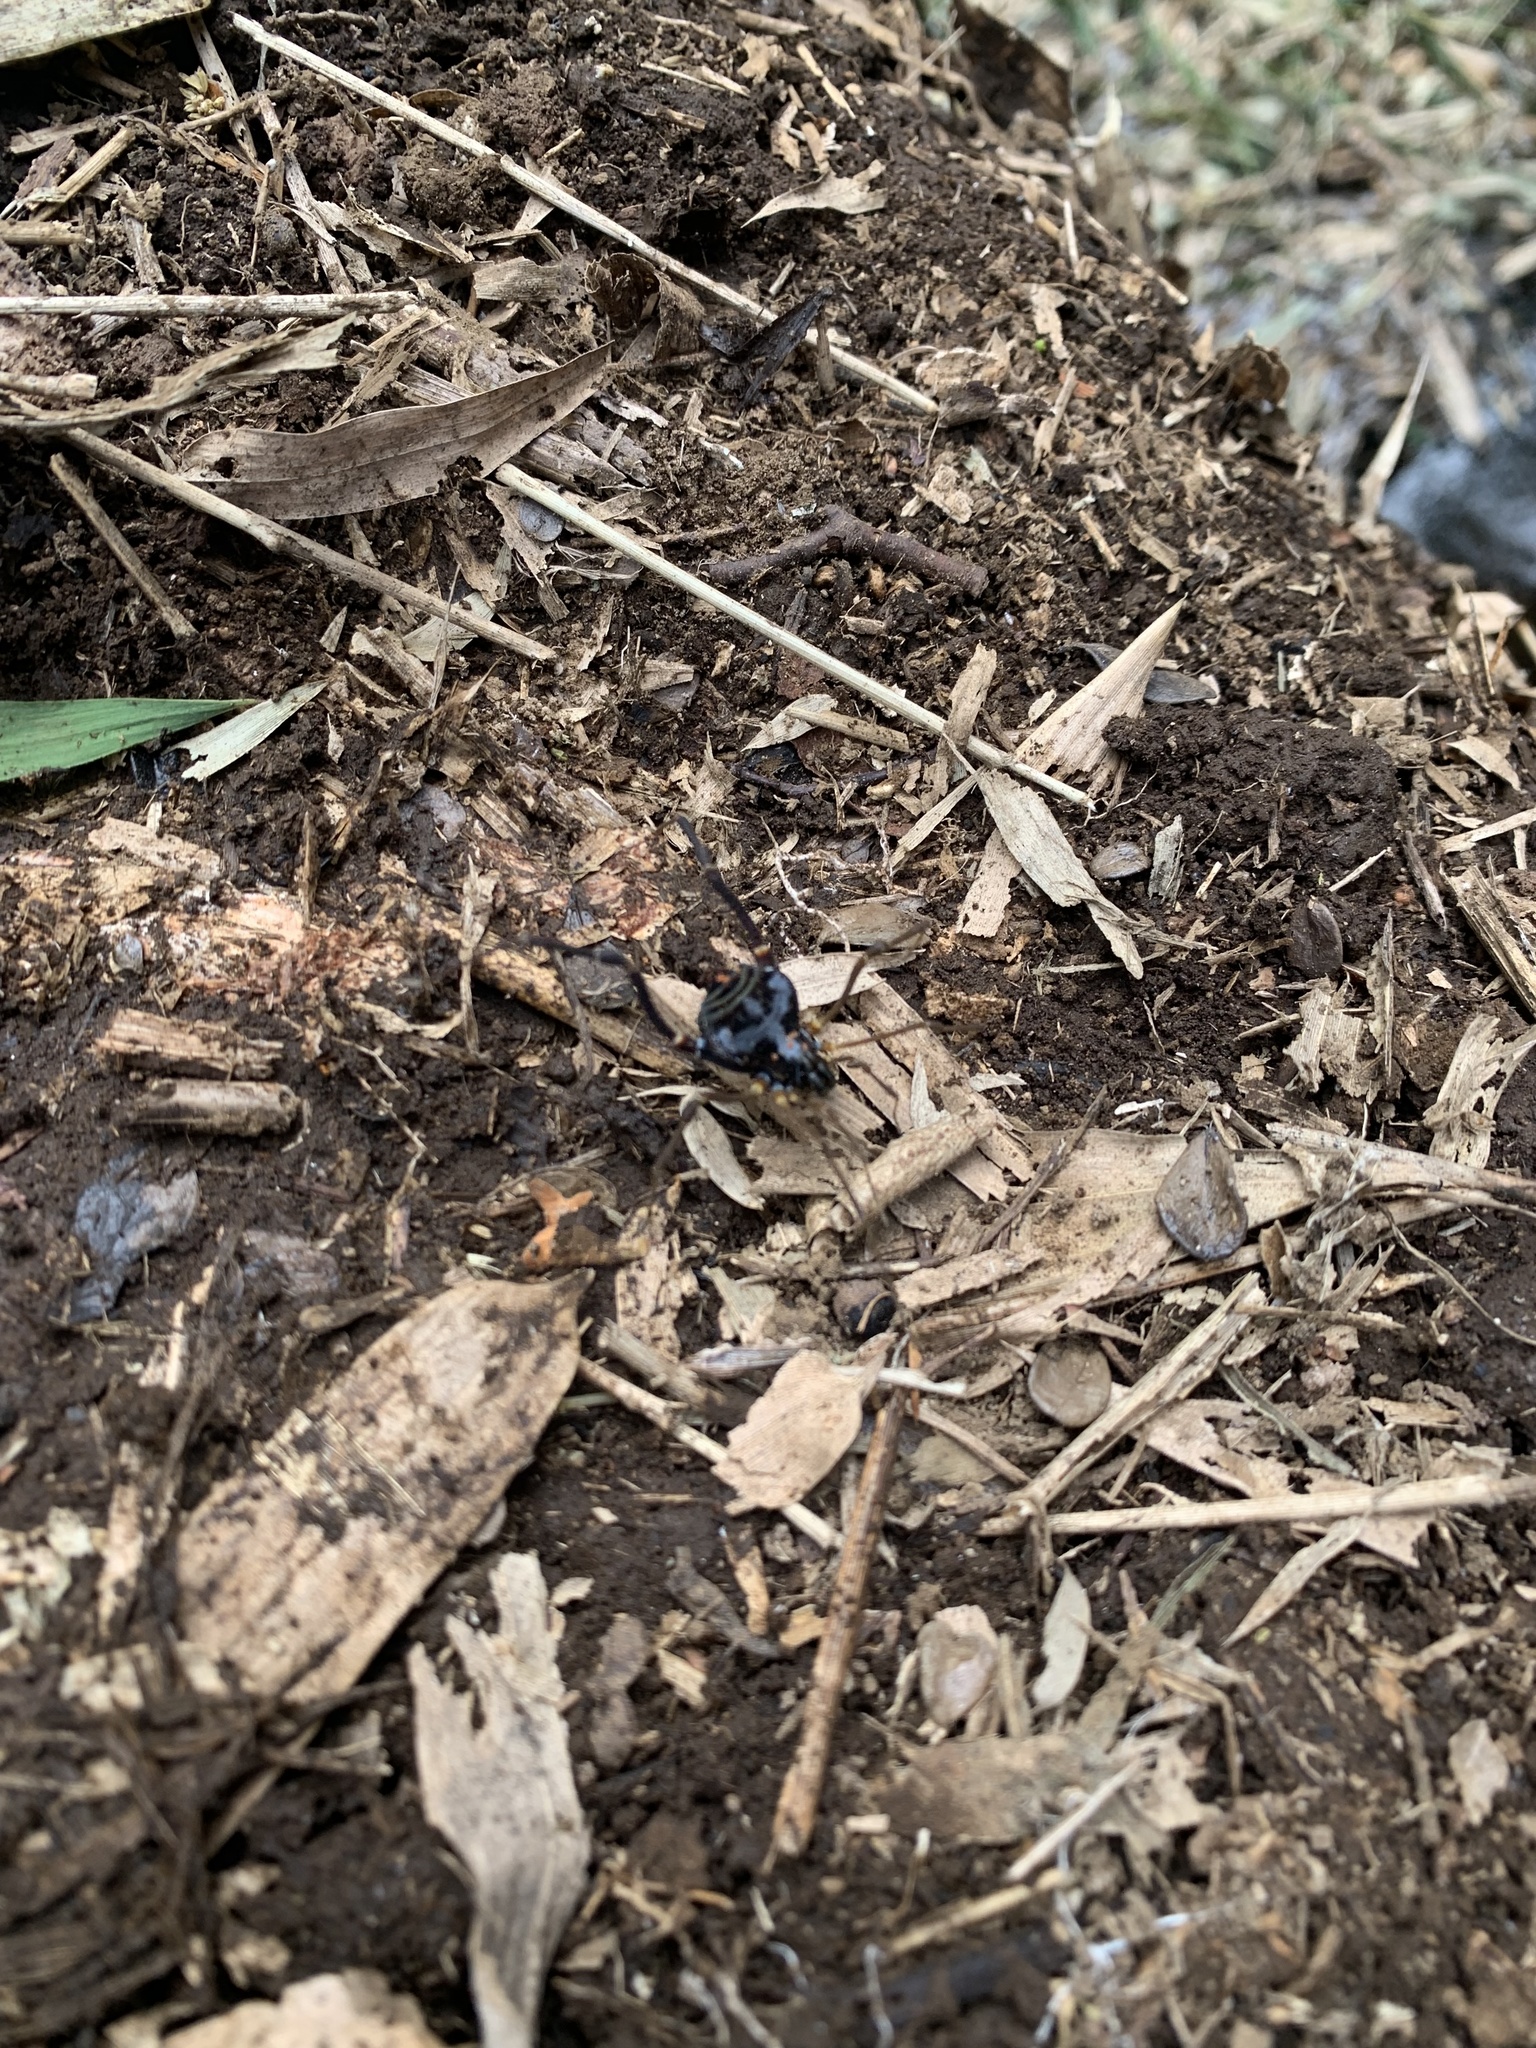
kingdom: Animalia
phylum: Arthropoda
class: Arachnida
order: Opiliones
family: Gonyleptidae
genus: Sadocus
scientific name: Sadocus asperatus
